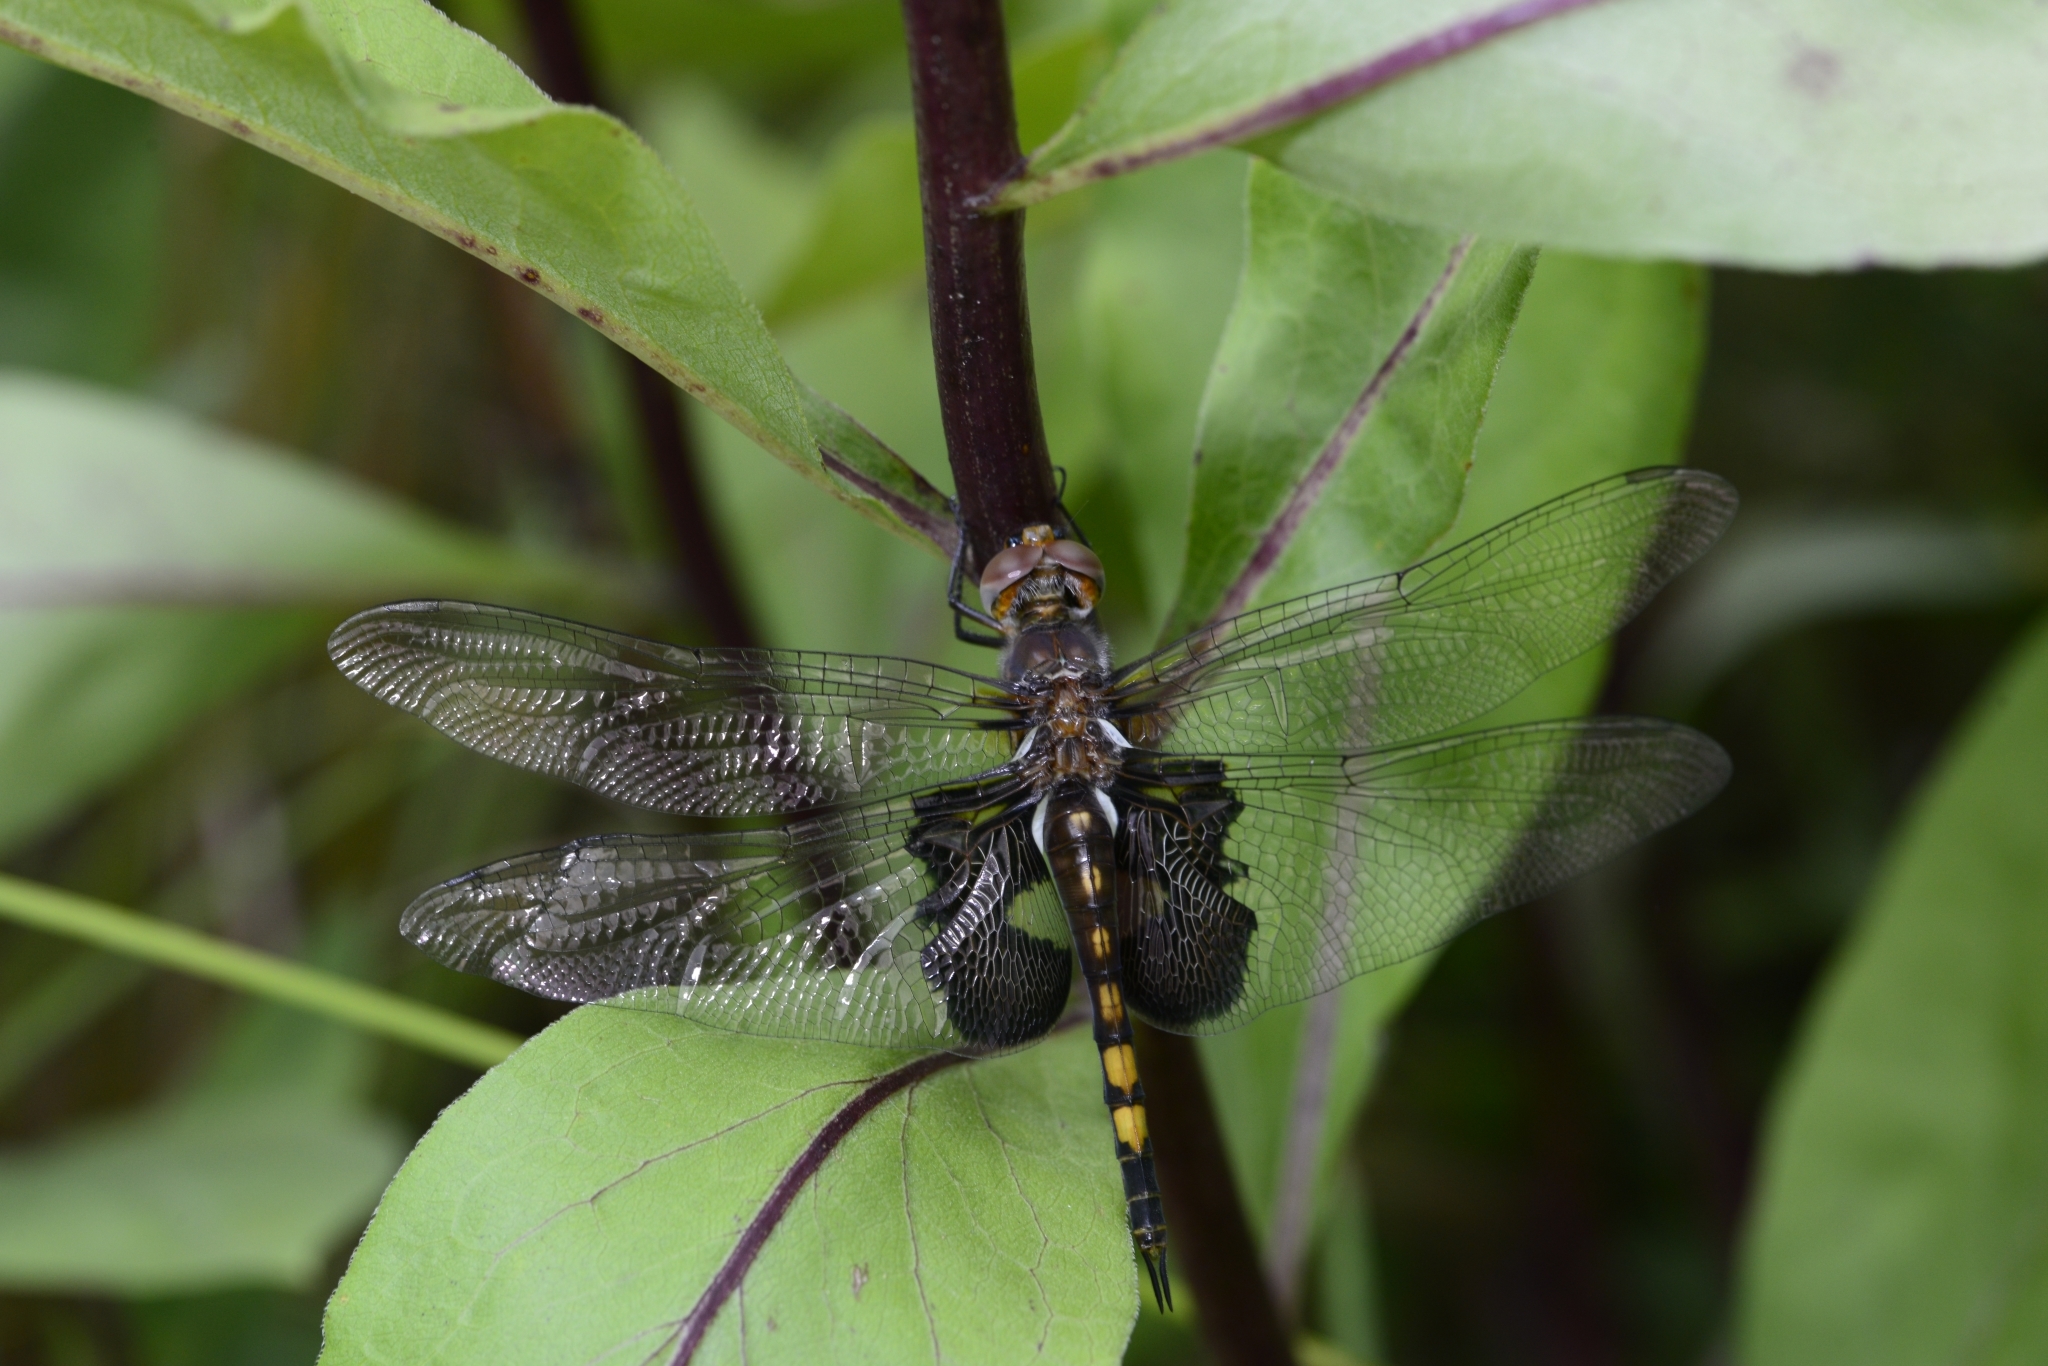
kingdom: Animalia
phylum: Arthropoda
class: Insecta
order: Odonata
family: Libellulidae
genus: Tramea
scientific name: Tramea lacerata
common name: Black saddlebags
